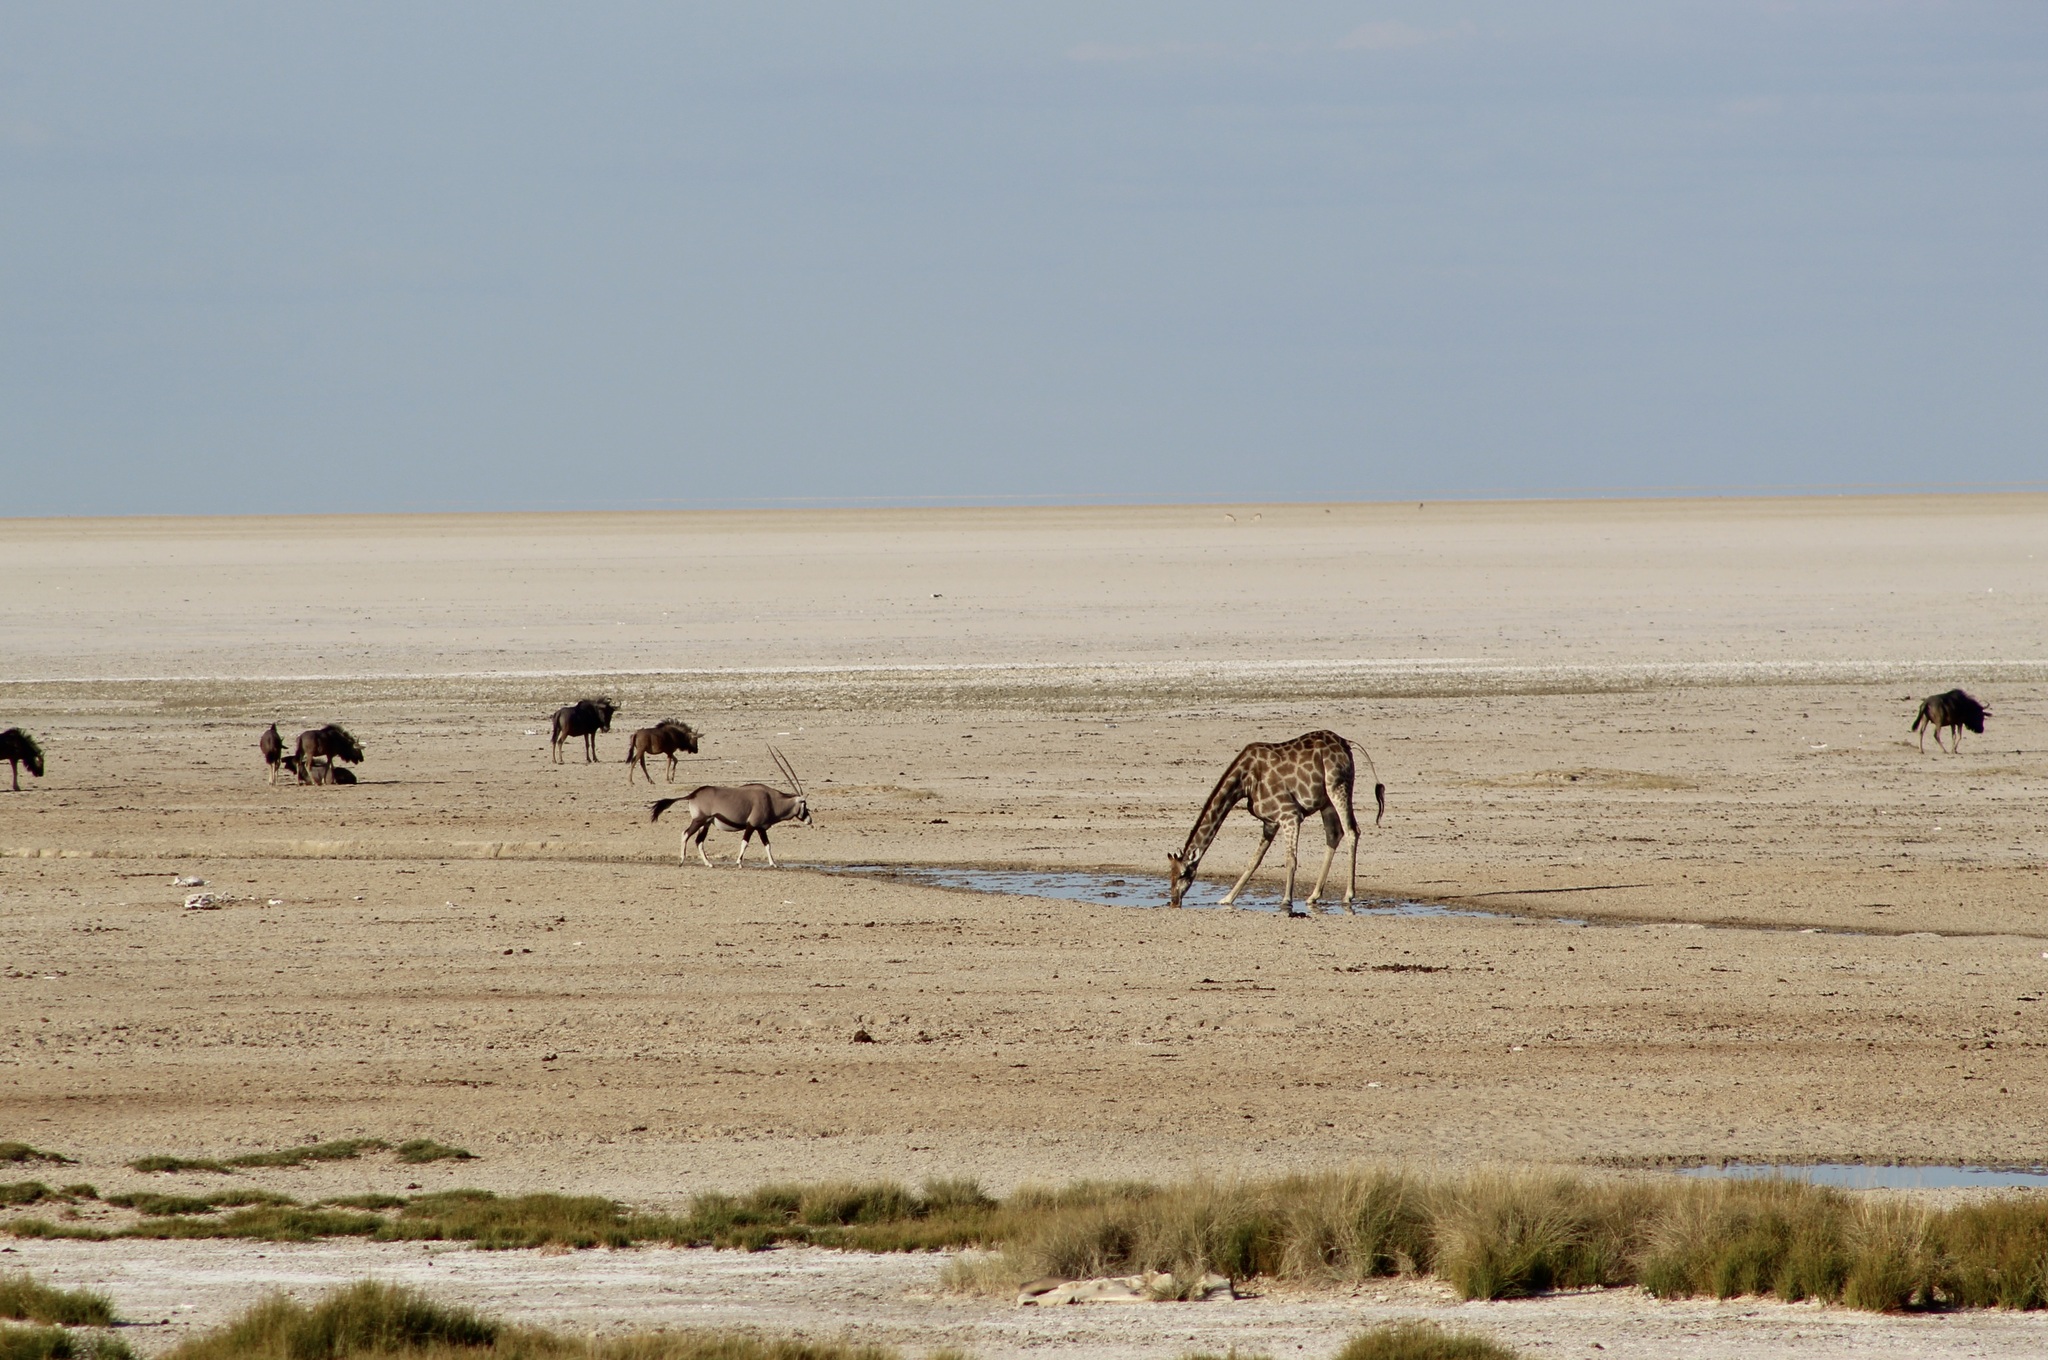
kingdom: Animalia
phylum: Chordata
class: Mammalia
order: Artiodactyla
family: Giraffidae
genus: Giraffa
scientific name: Giraffa giraffa
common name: Southern giraffe
